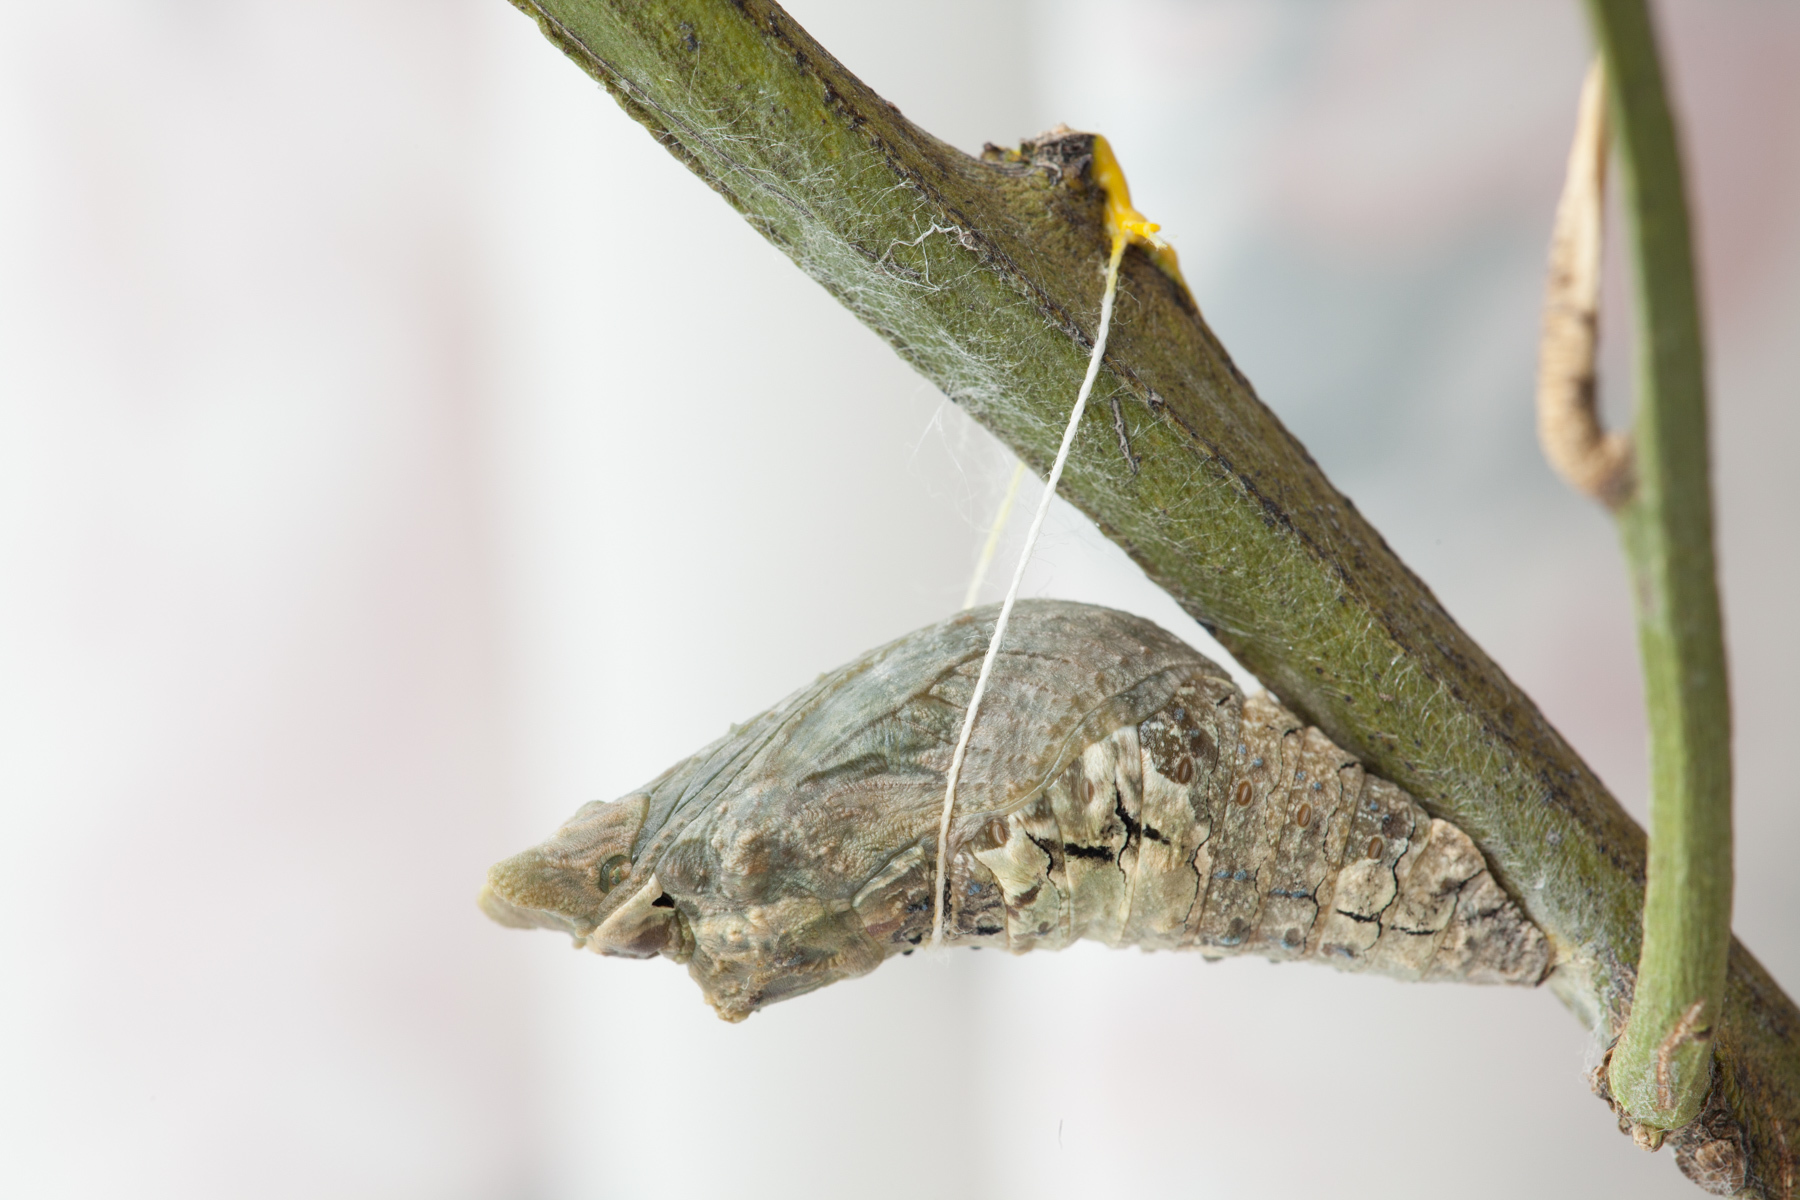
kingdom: Animalia
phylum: Arthropoda
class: Insecta
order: Lepidoptera
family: Papilionidae
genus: Papilio
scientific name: Papilio rumiko
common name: Western giant swallowtail
